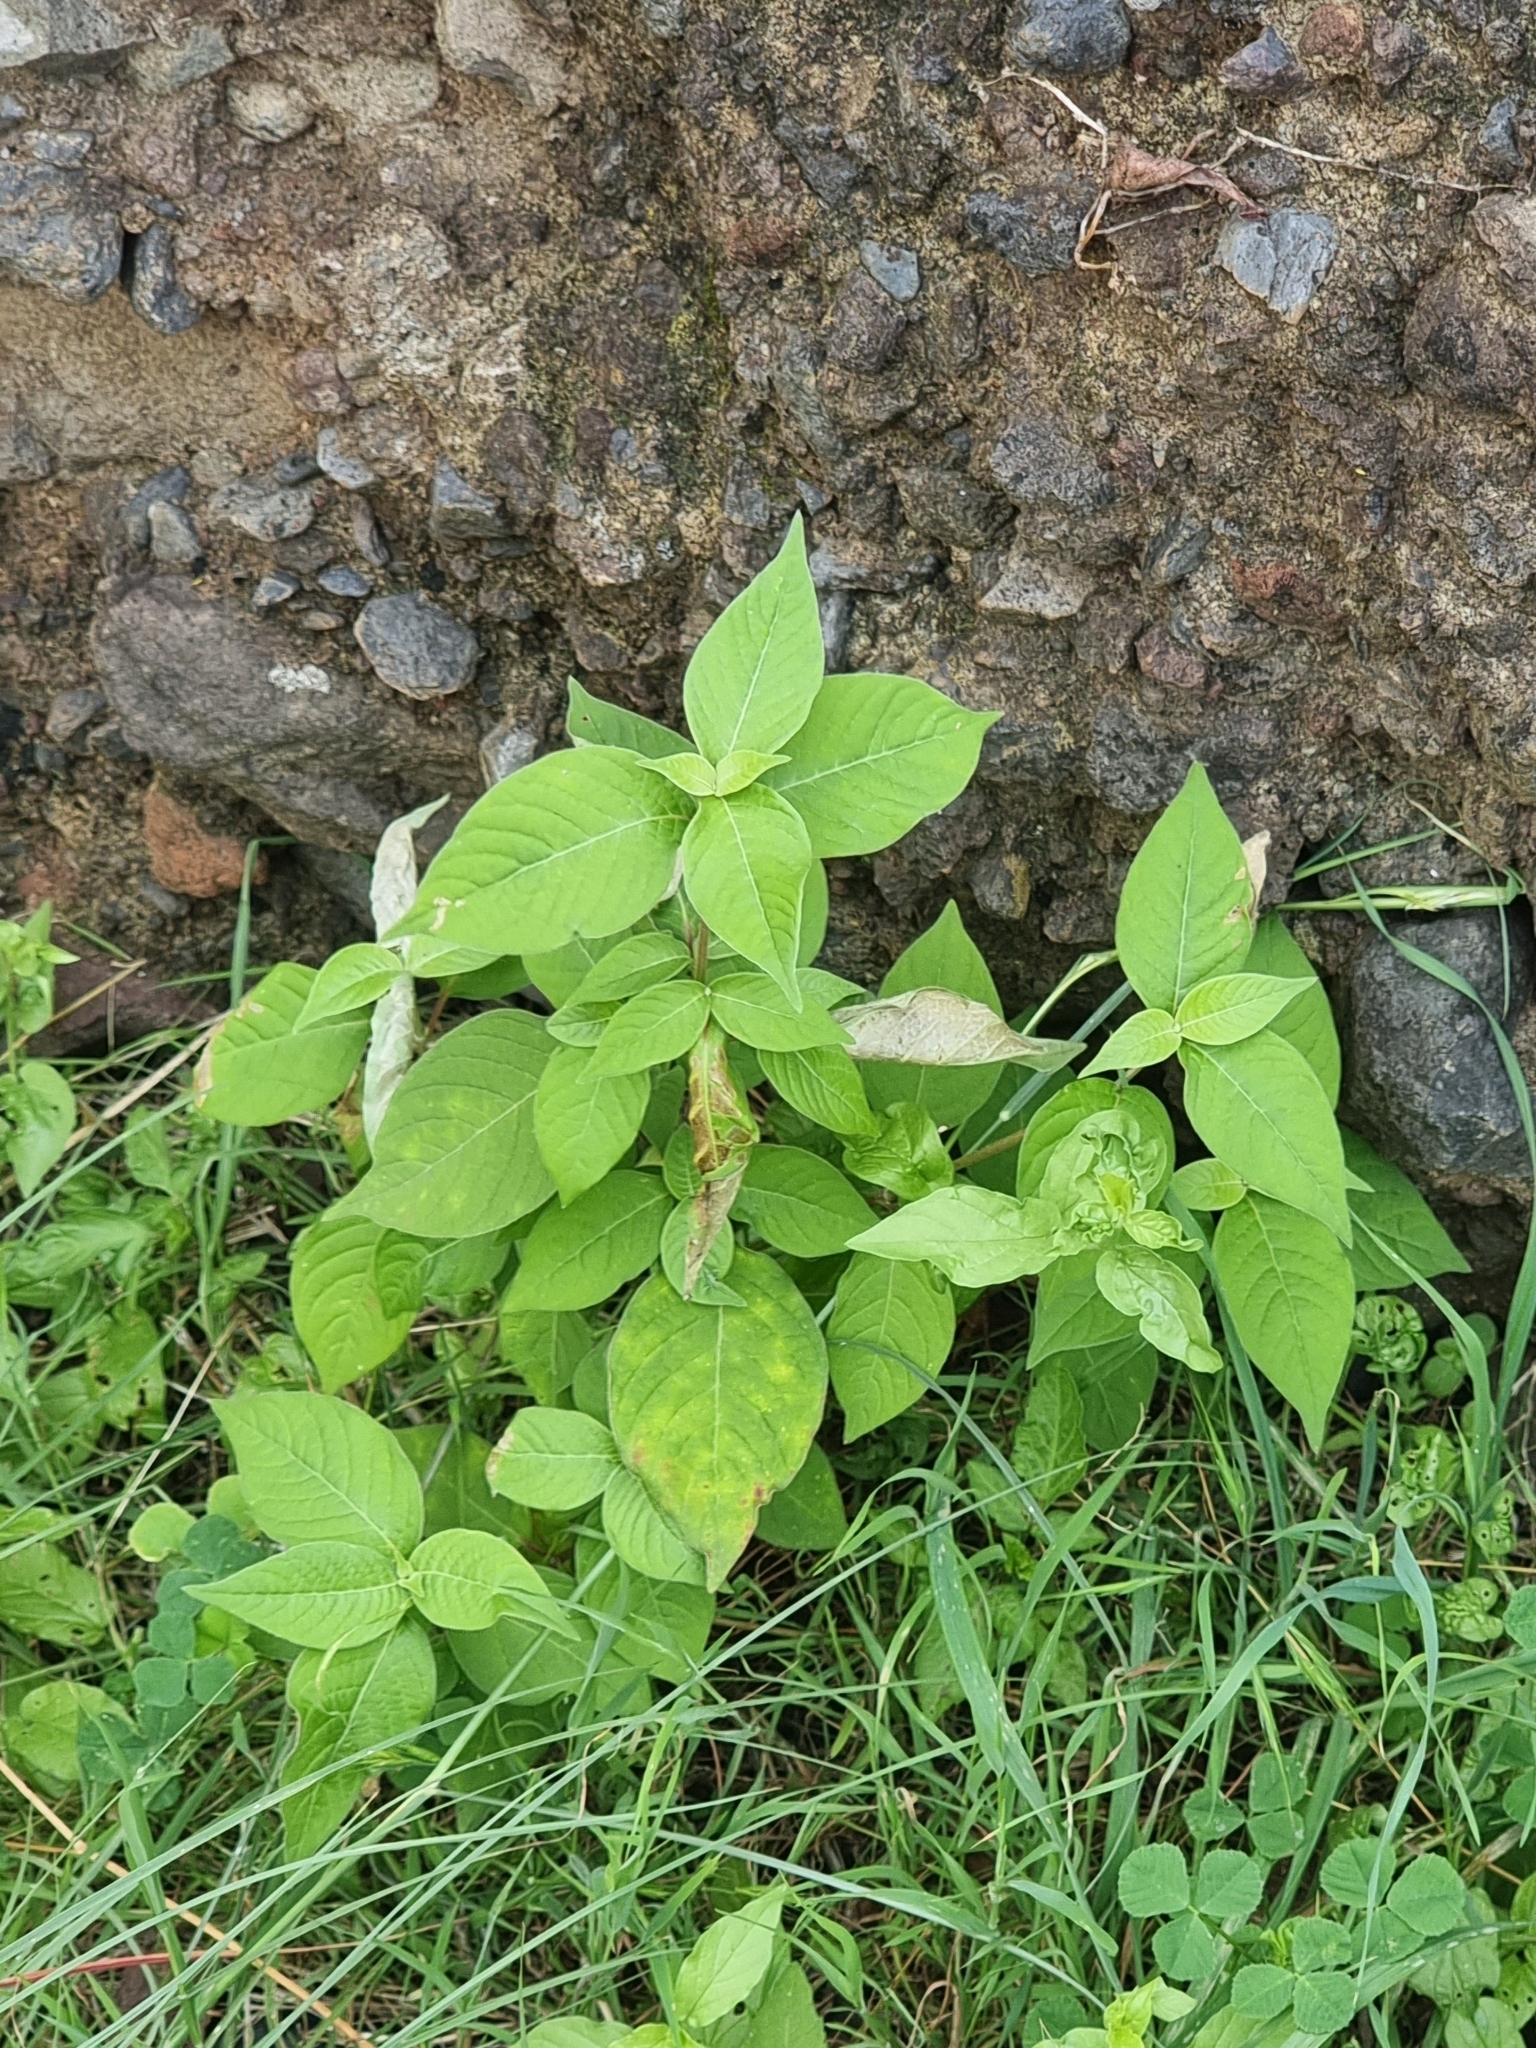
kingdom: Plantae
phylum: Tracheophyta
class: Magnoliopsida
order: Caryophyllales
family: Amaranthaceae
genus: Achyranthes
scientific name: Achyranthes aspera
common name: Devil's horsewhip
